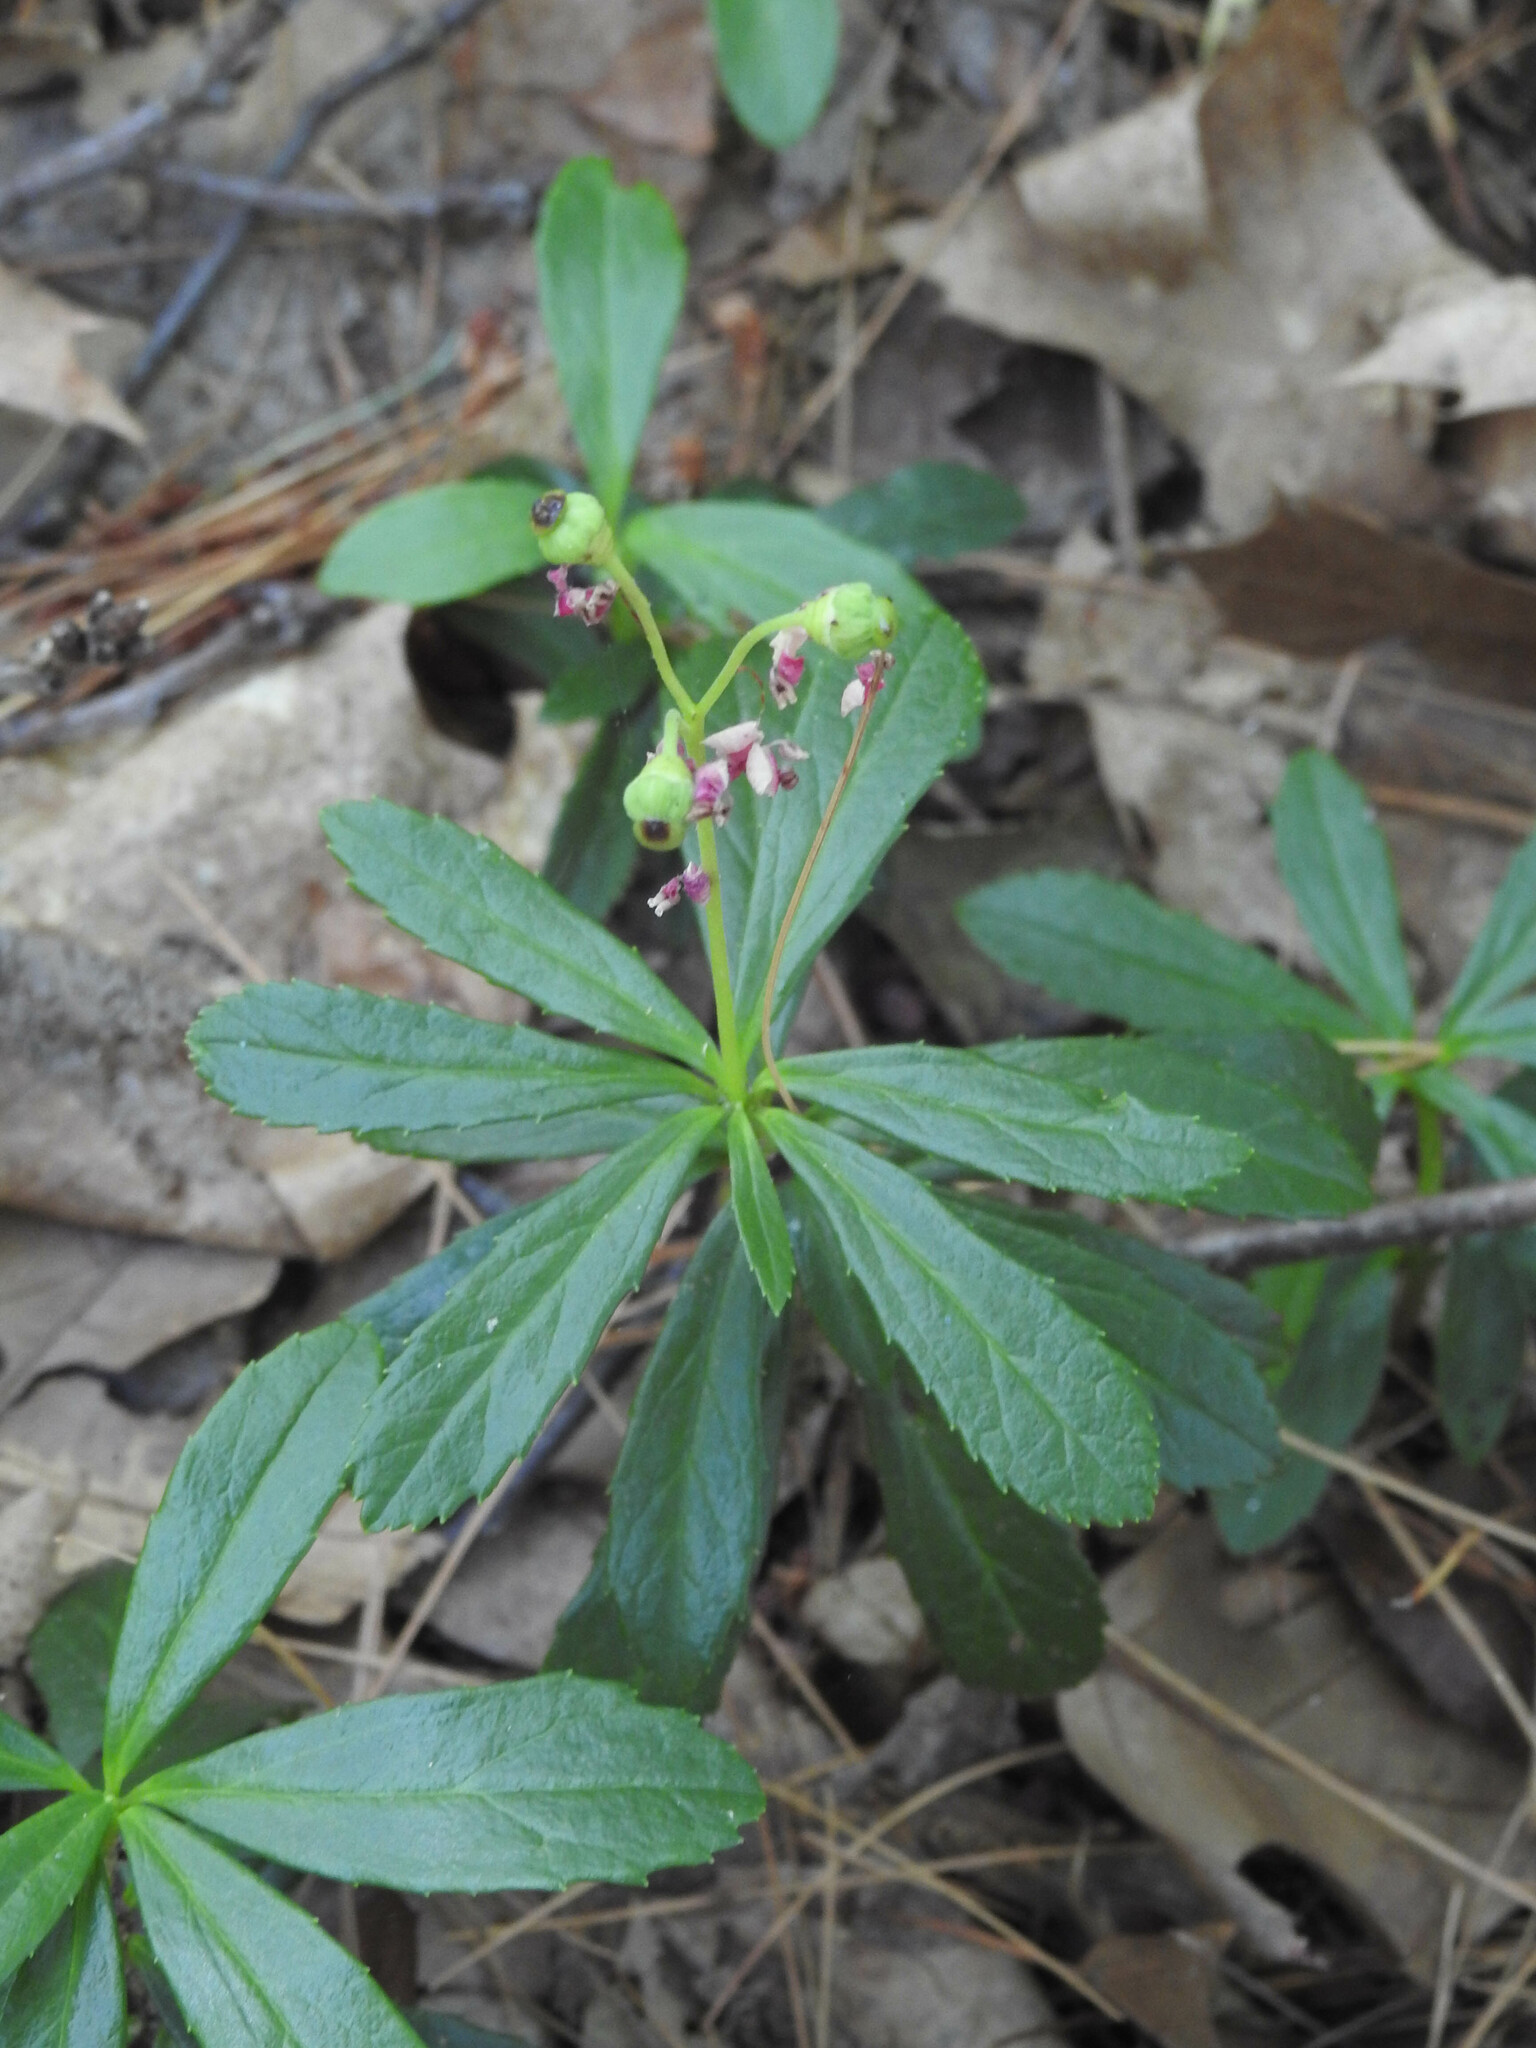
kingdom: Plantae
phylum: Tracheophyta
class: Magnoliopsida
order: Ericales
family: Ericaceae
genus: Chimaphila
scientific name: Chimaphila umbellata
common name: Pipsissewa
